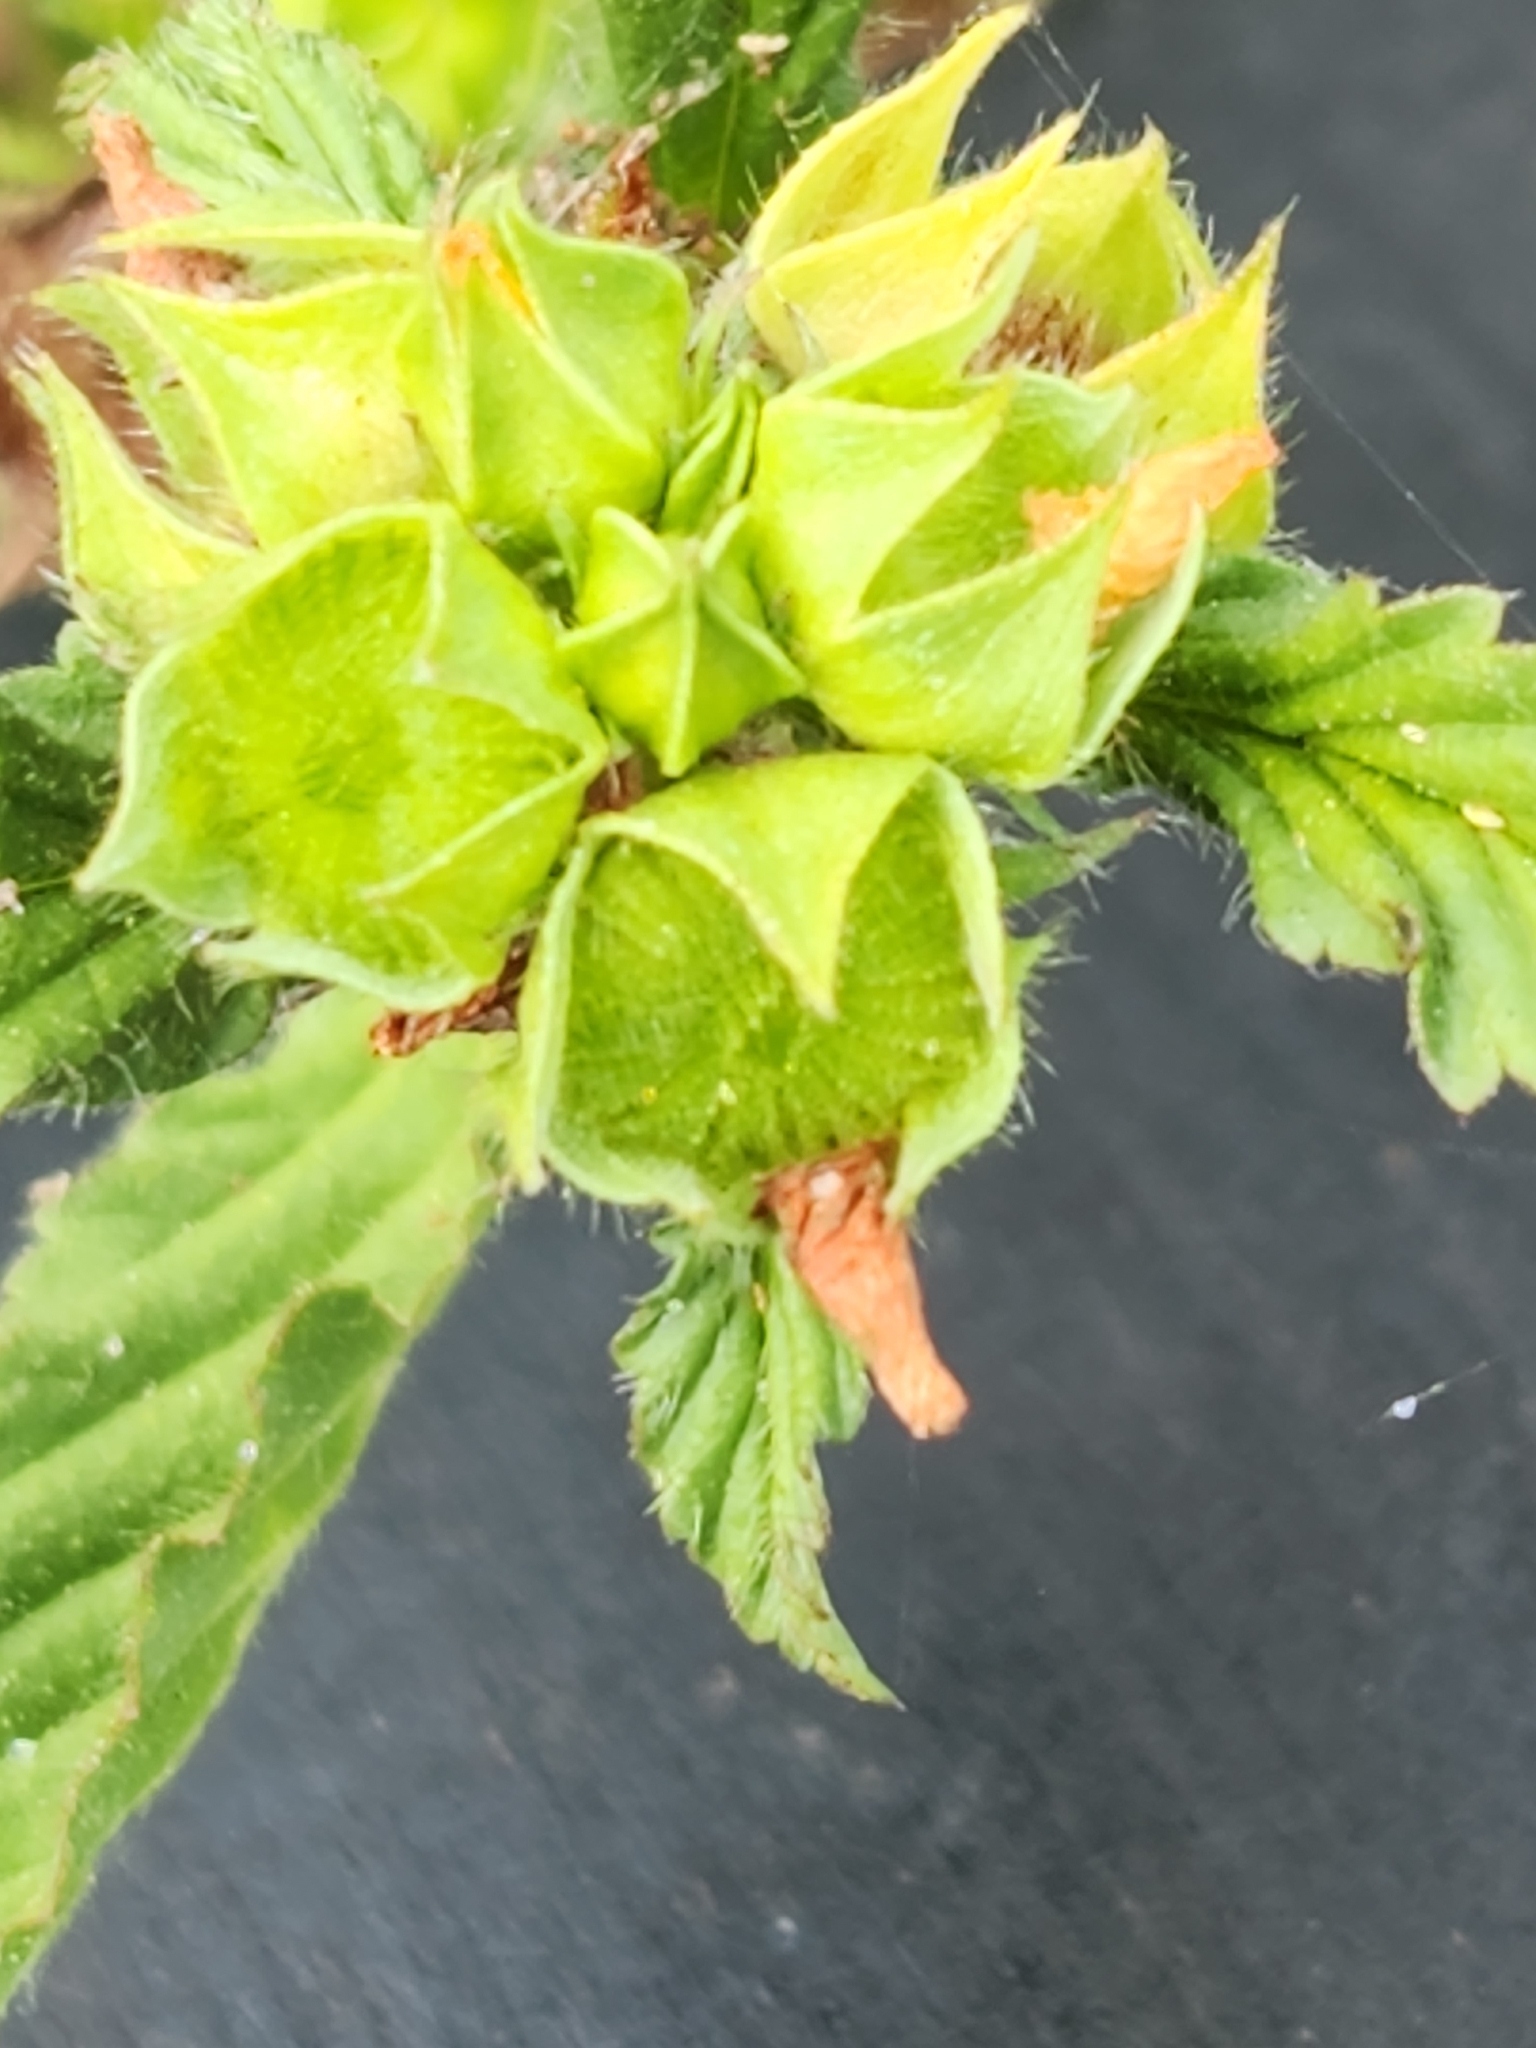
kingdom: Plantae
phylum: Tracheophyta
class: Magnoliopsida
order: Malvales
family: Malvaceae
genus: Malvastrum
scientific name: Malvastrum coromandelianum
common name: Threelobe false mallow
